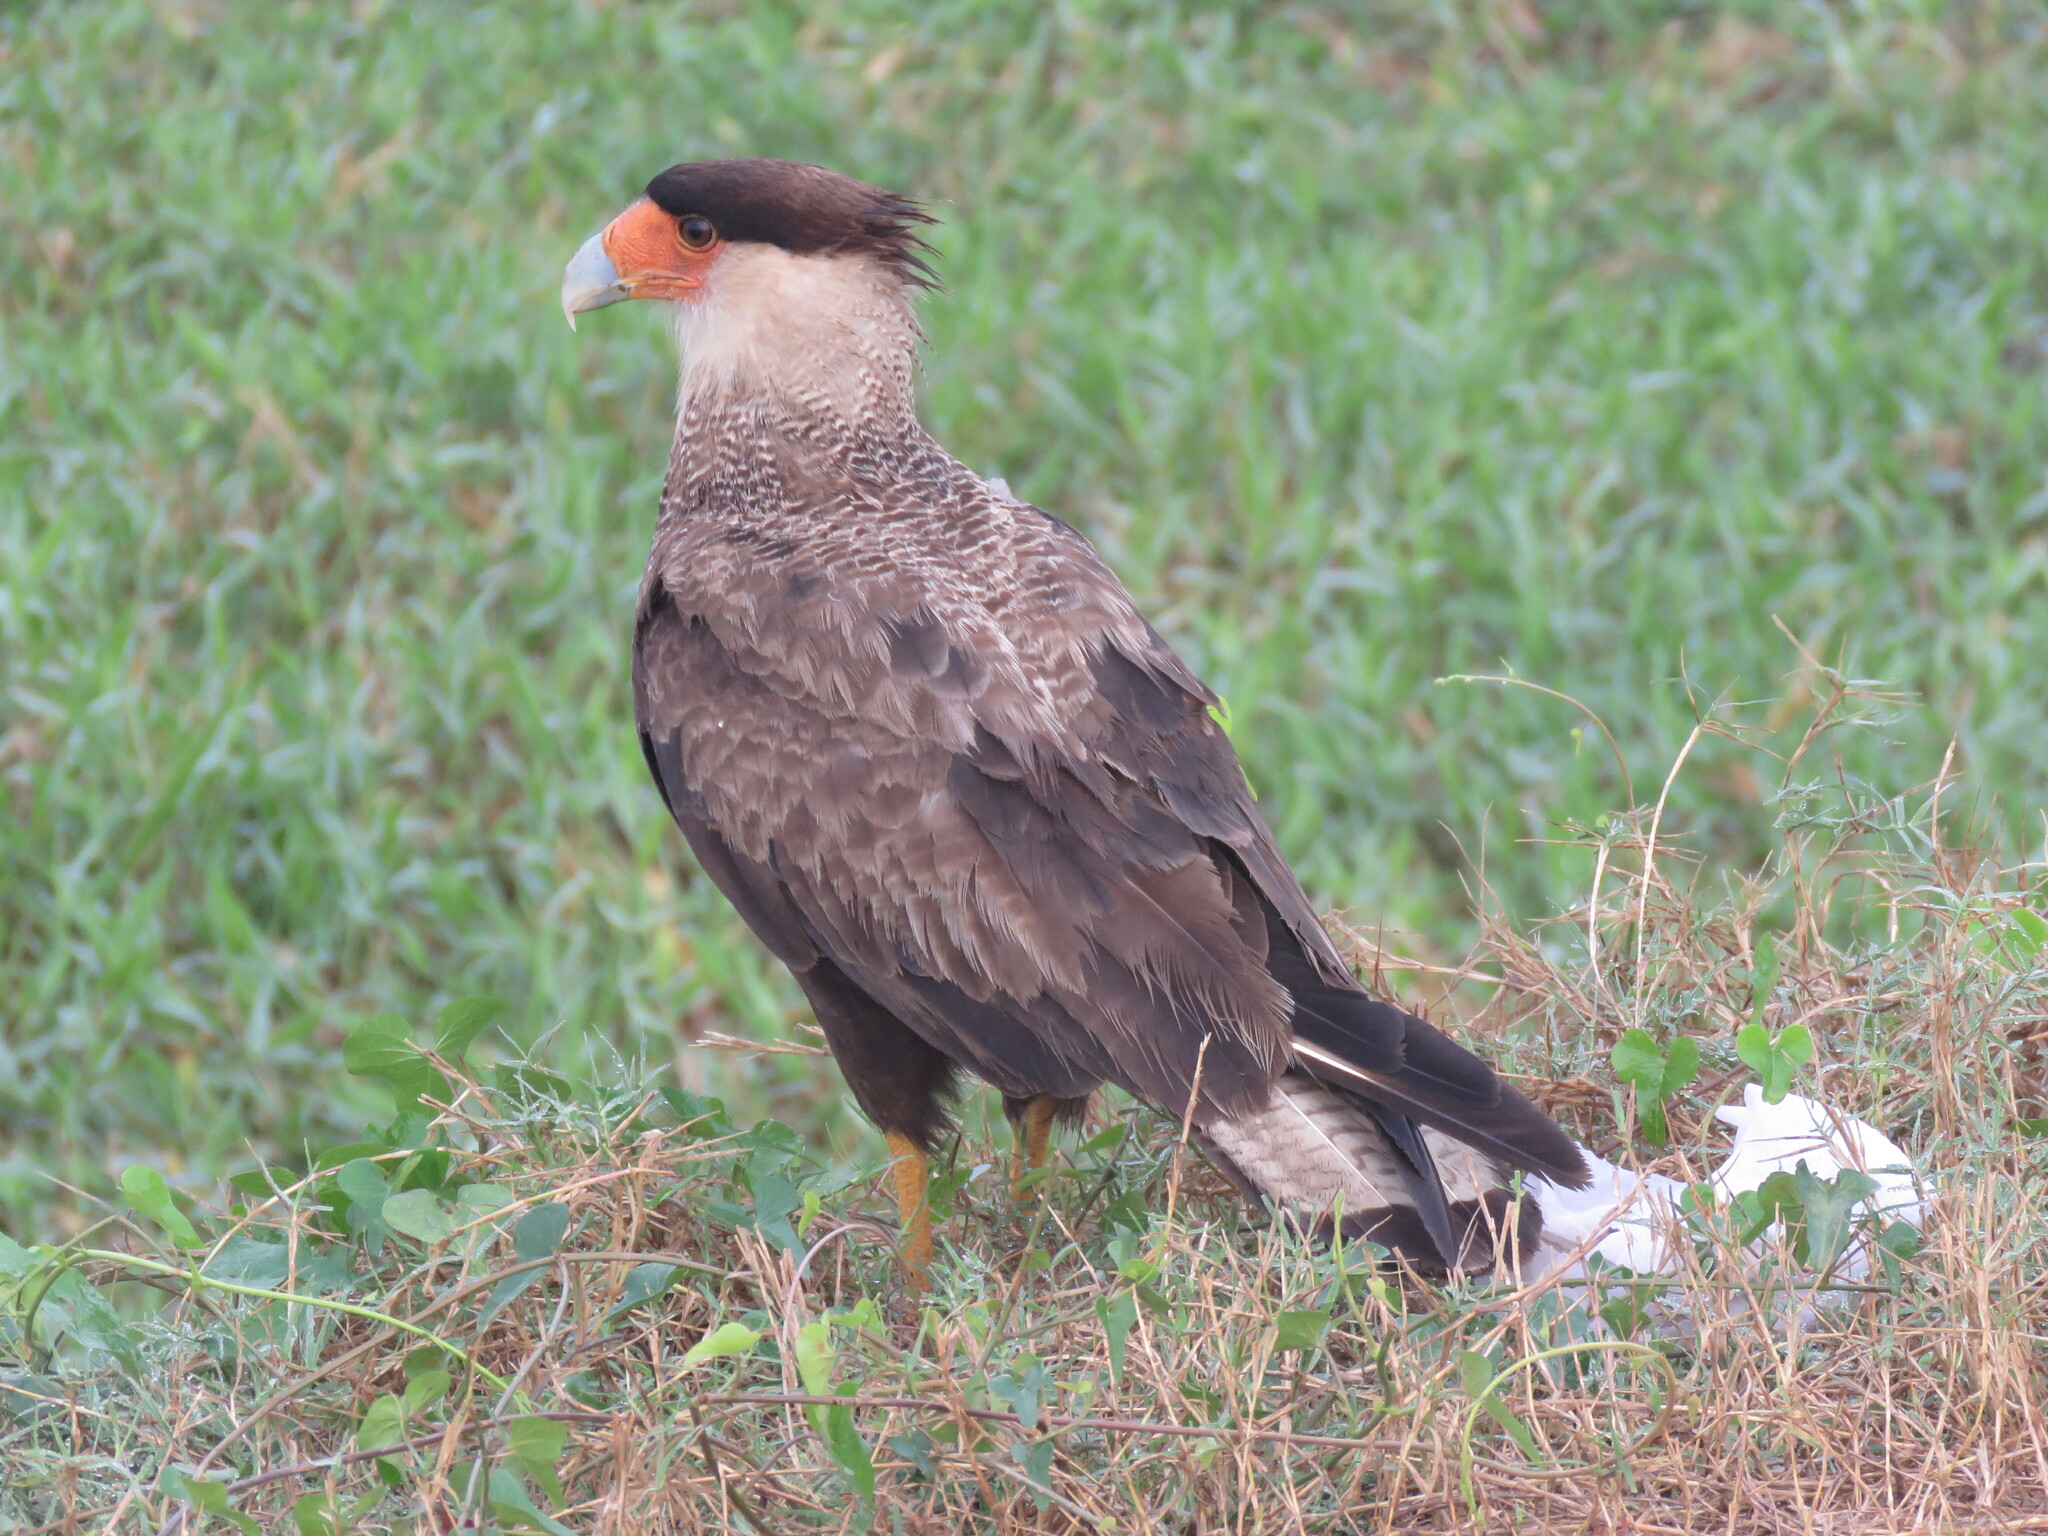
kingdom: Animalia
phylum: Chordata
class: Aves
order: Falconiformes
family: Falconidae
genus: Caracara
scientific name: Caracara plancus
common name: Southern caracara
